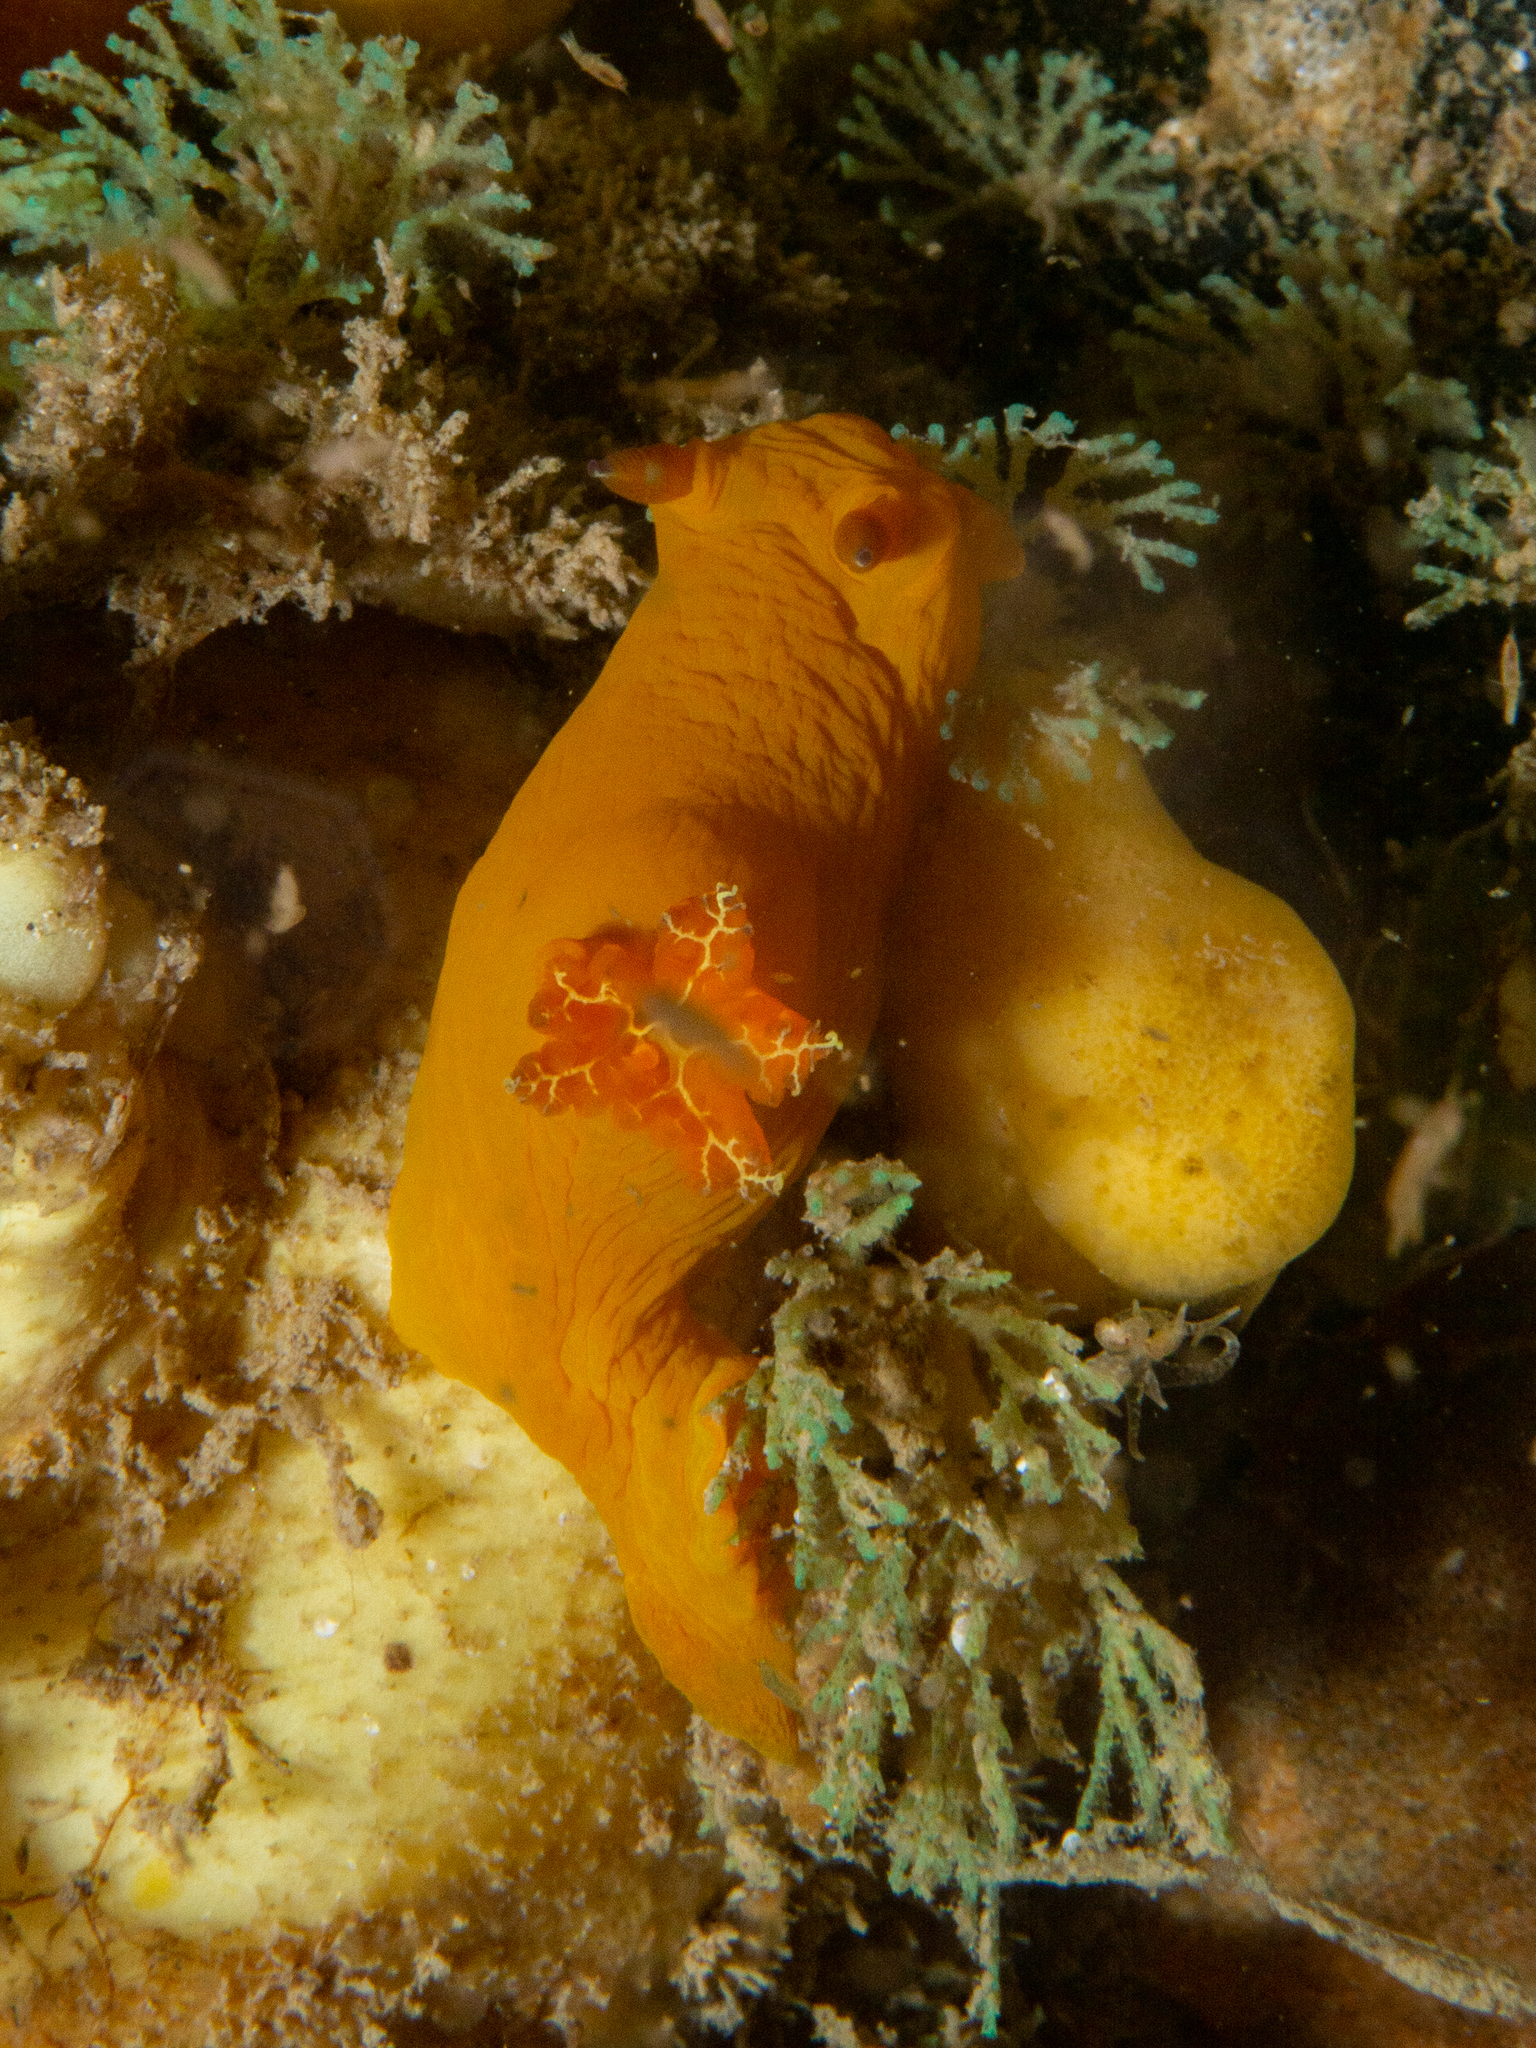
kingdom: Animalia
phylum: Mollusca
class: Gastropoda
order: Nudibranchia
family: Polyceridae
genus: Tambja
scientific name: Tambja dracomus
